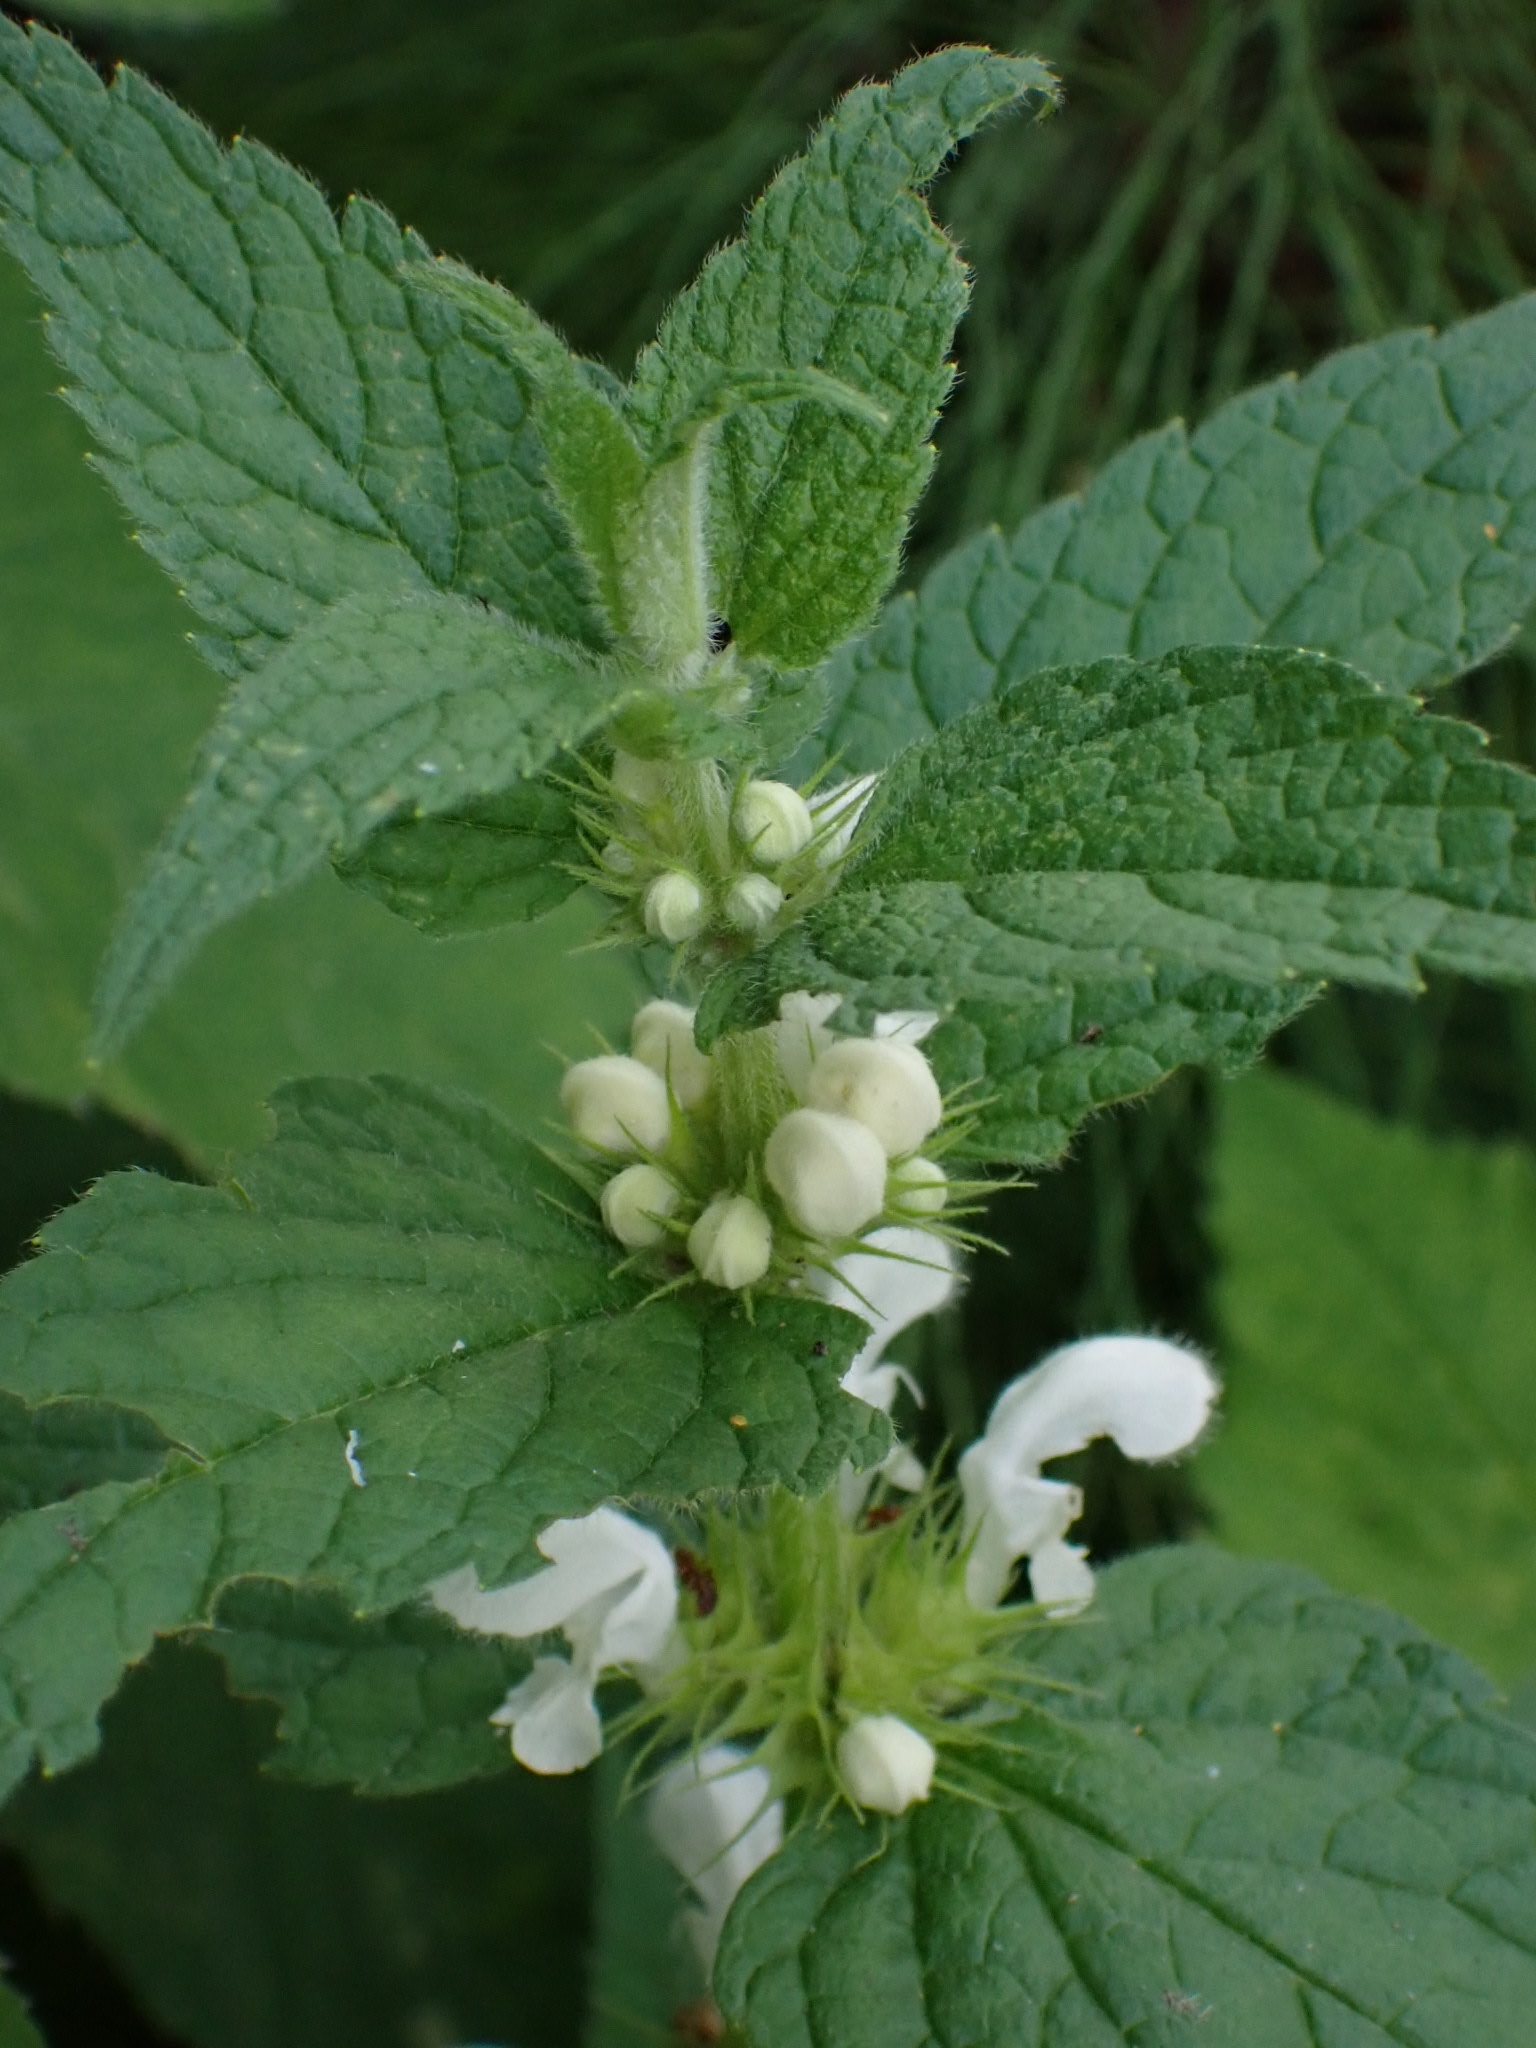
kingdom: Plantae
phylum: Tracheophyta
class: Magnoliopsida
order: Lamiales
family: Lamiaceae
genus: Lamium
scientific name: Lamium album
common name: White dead-nettle
